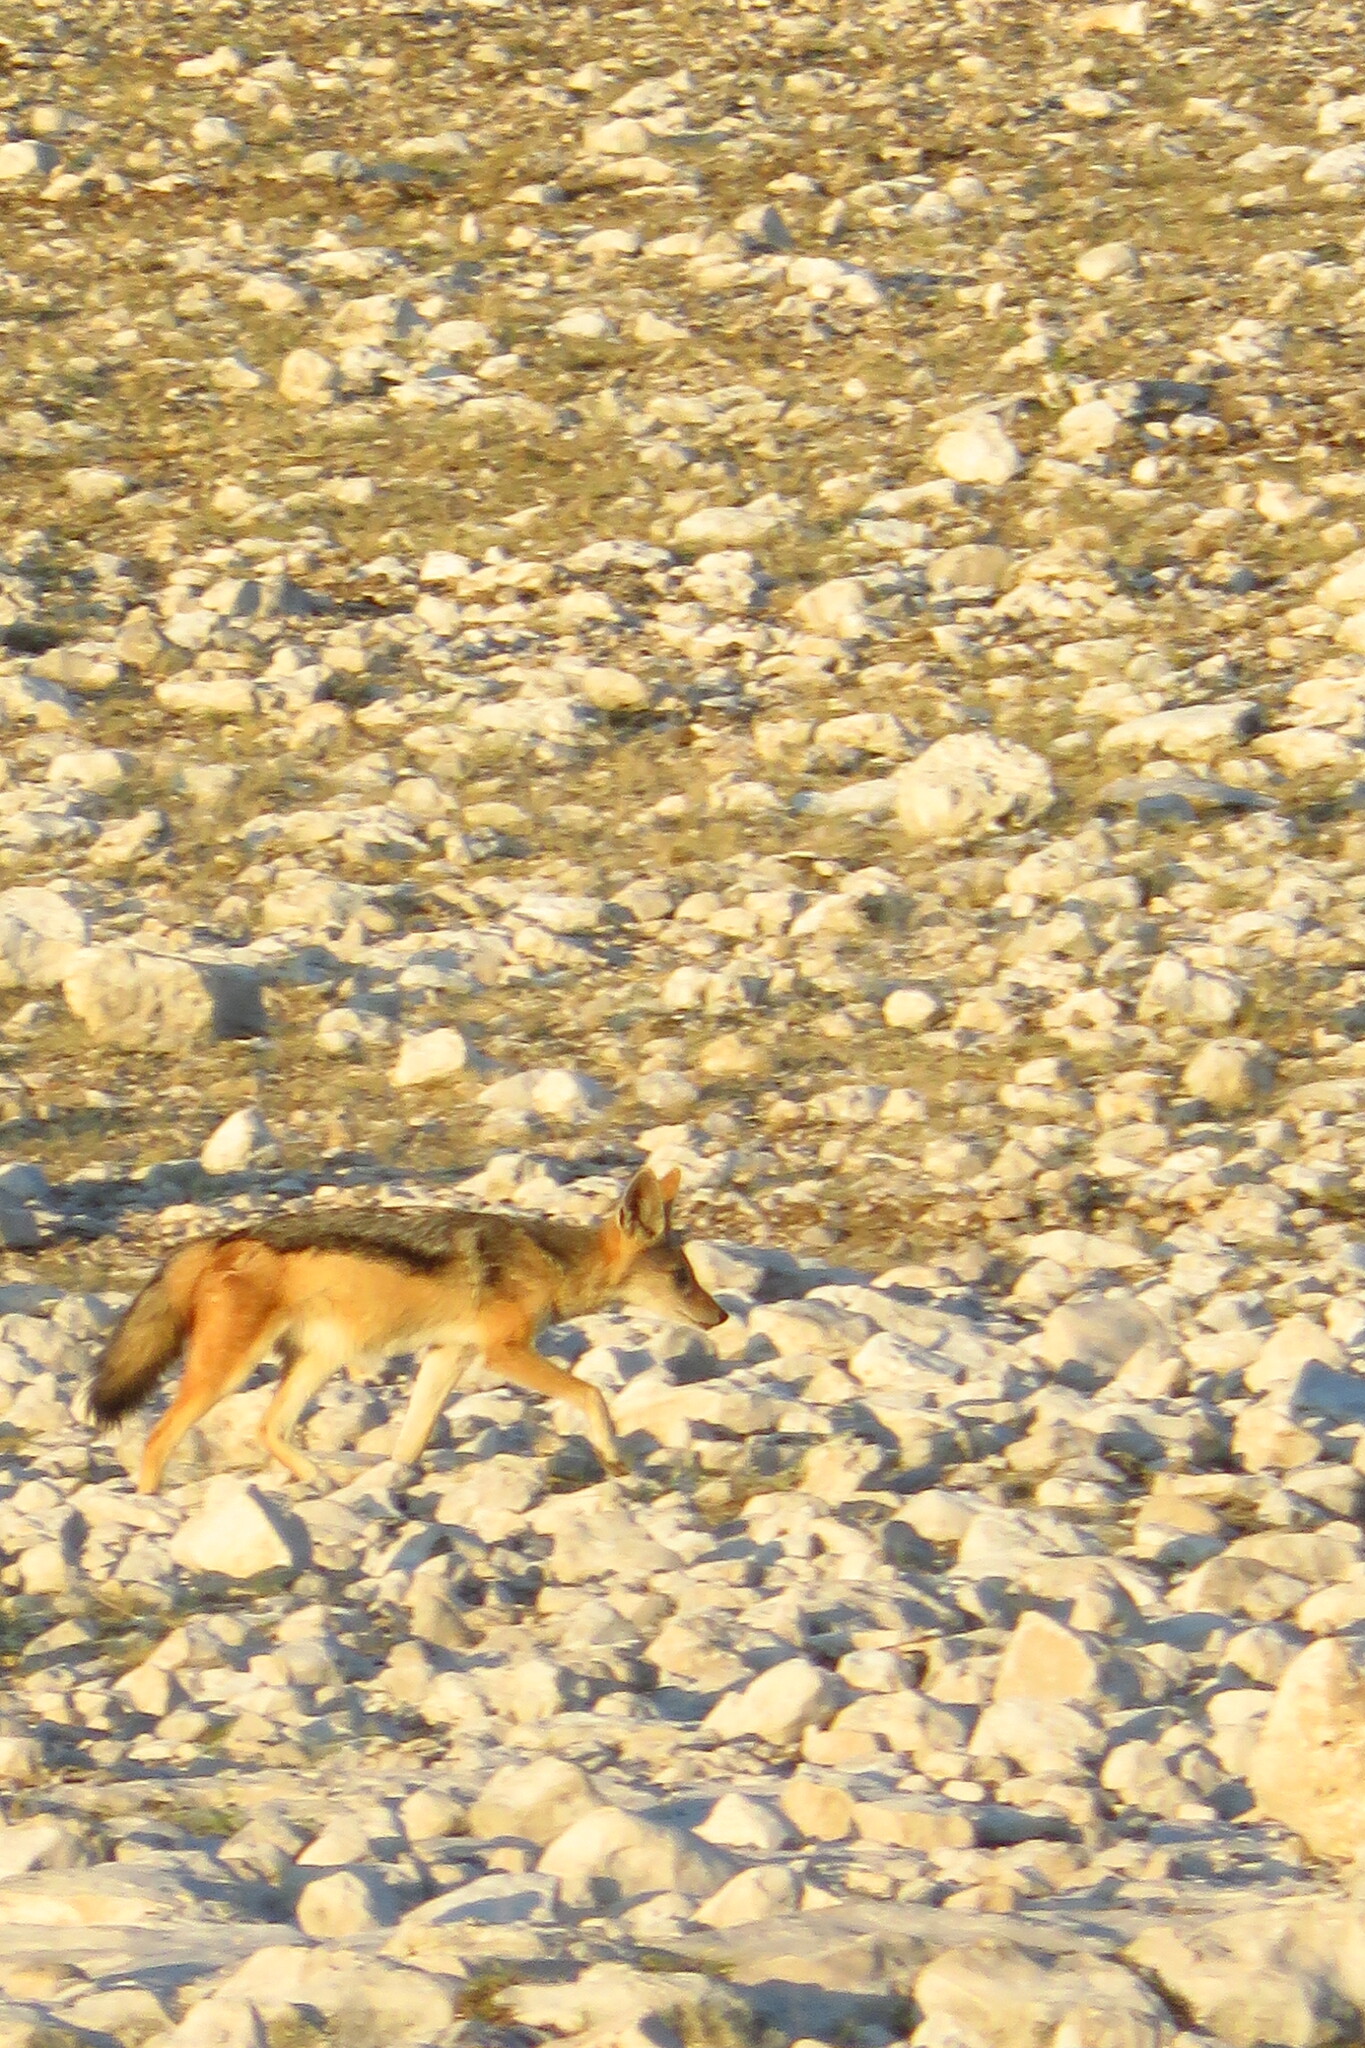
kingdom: Animalia
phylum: Chordata
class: Mammalia
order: Carnivora
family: Canidae
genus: Lupulella
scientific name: Lupulella
